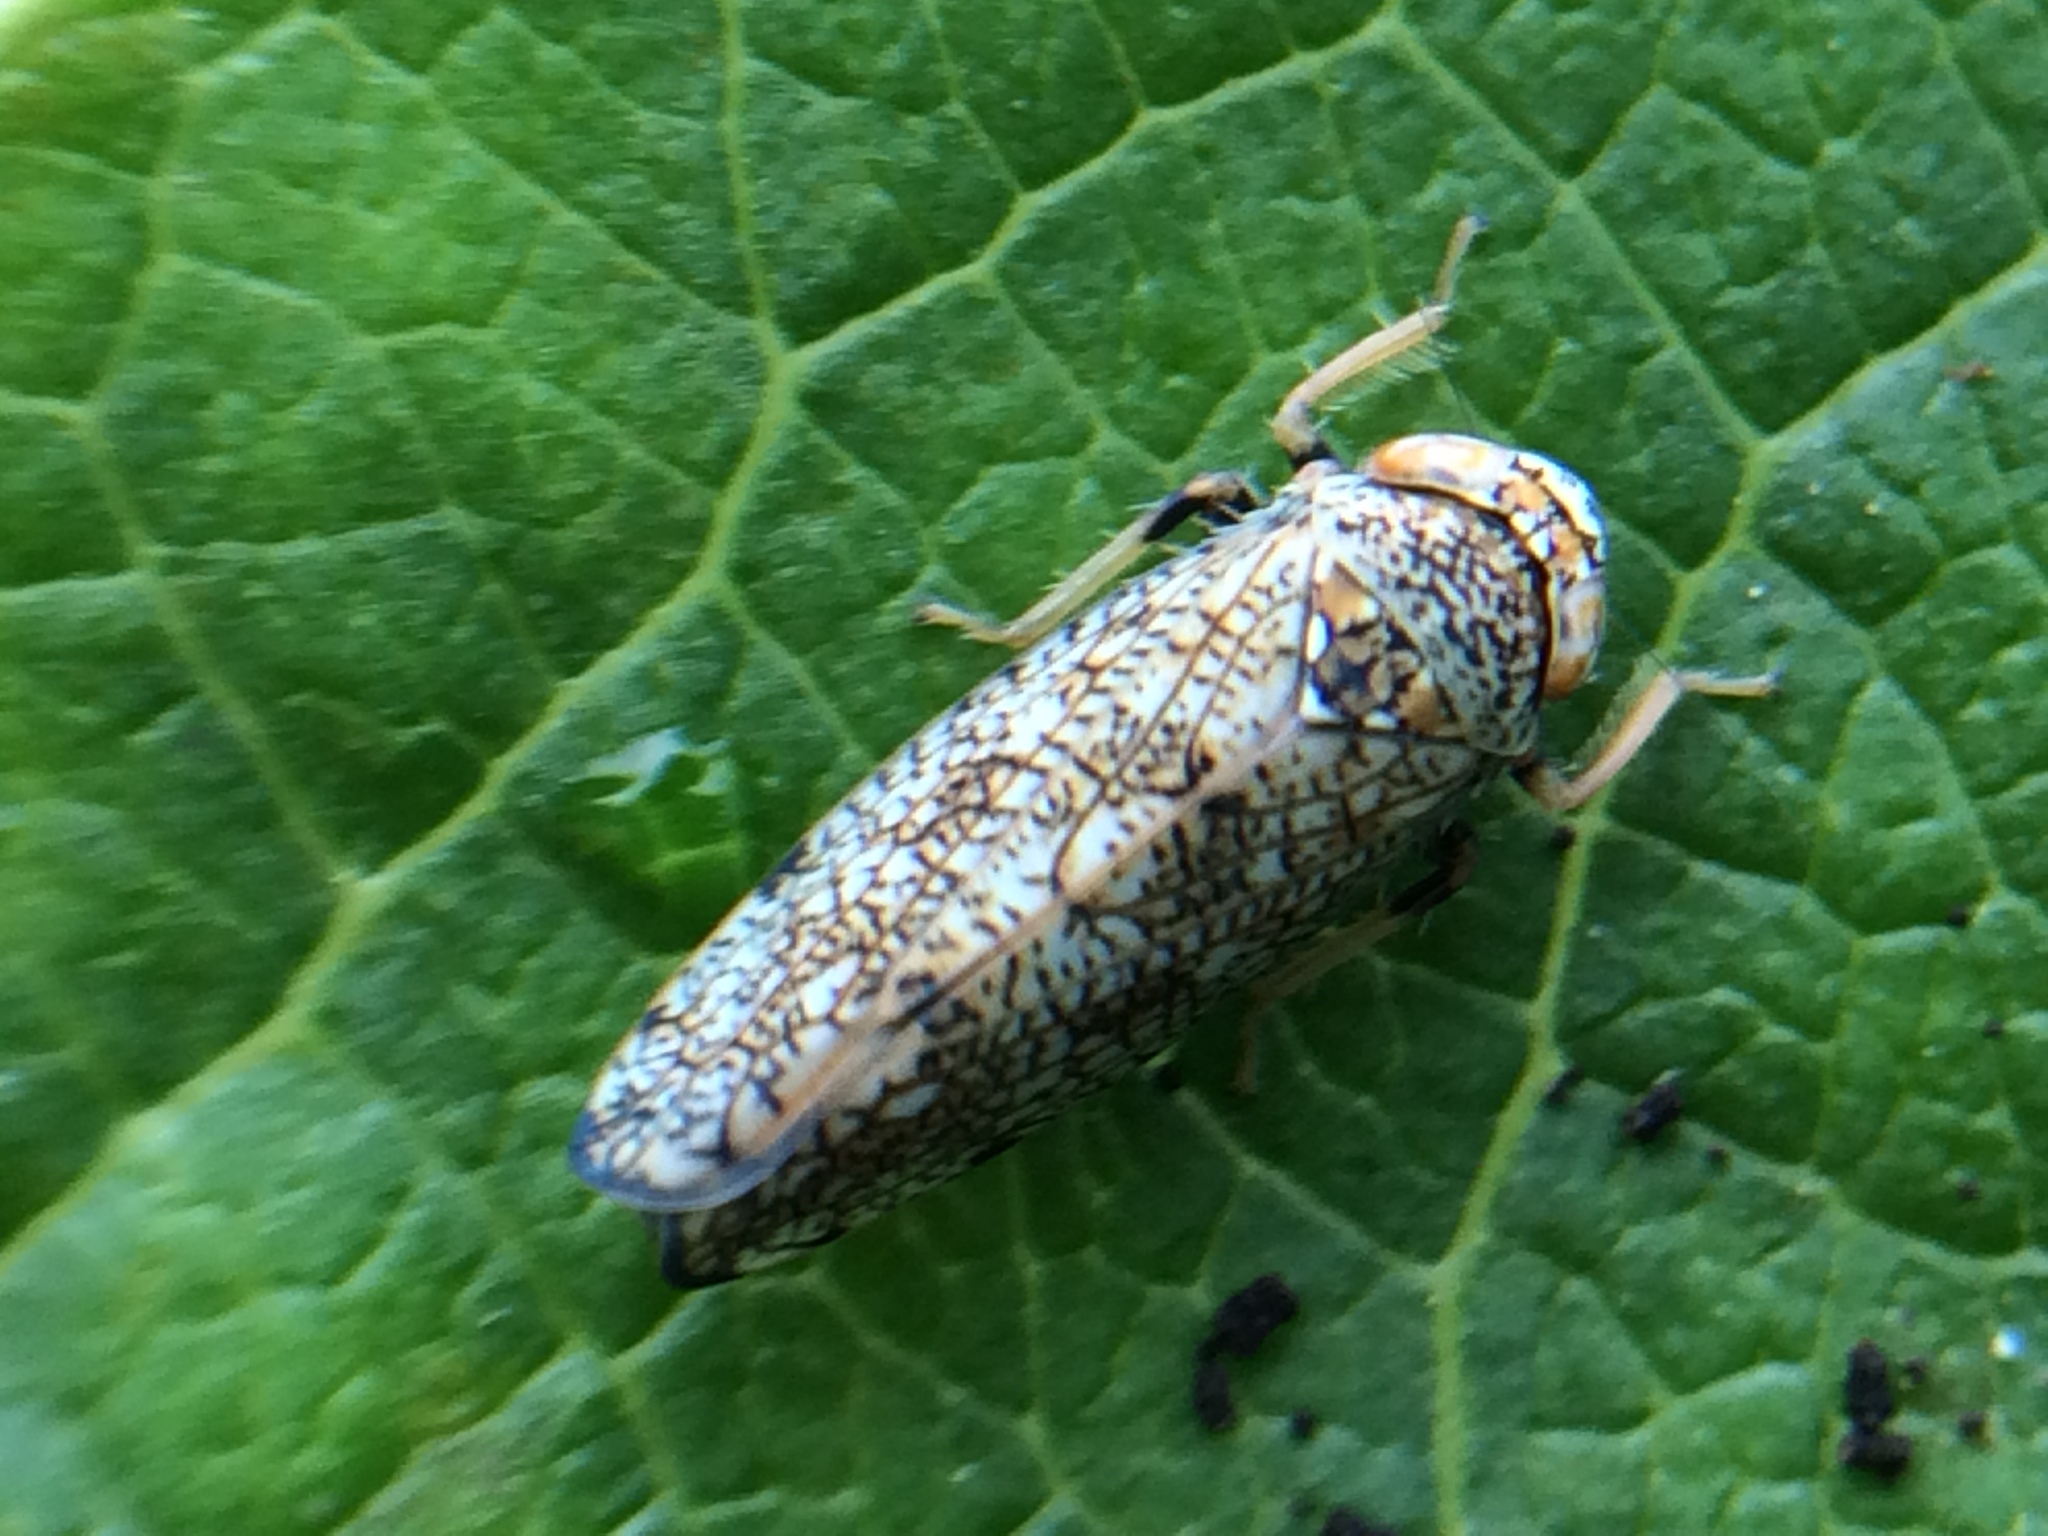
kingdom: Animalia
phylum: Arthropoda
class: Insecta
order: Hemiptera
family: Cicadellidae
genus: Orientus
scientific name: Orientus ishidae
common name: Japanese leafhopper
